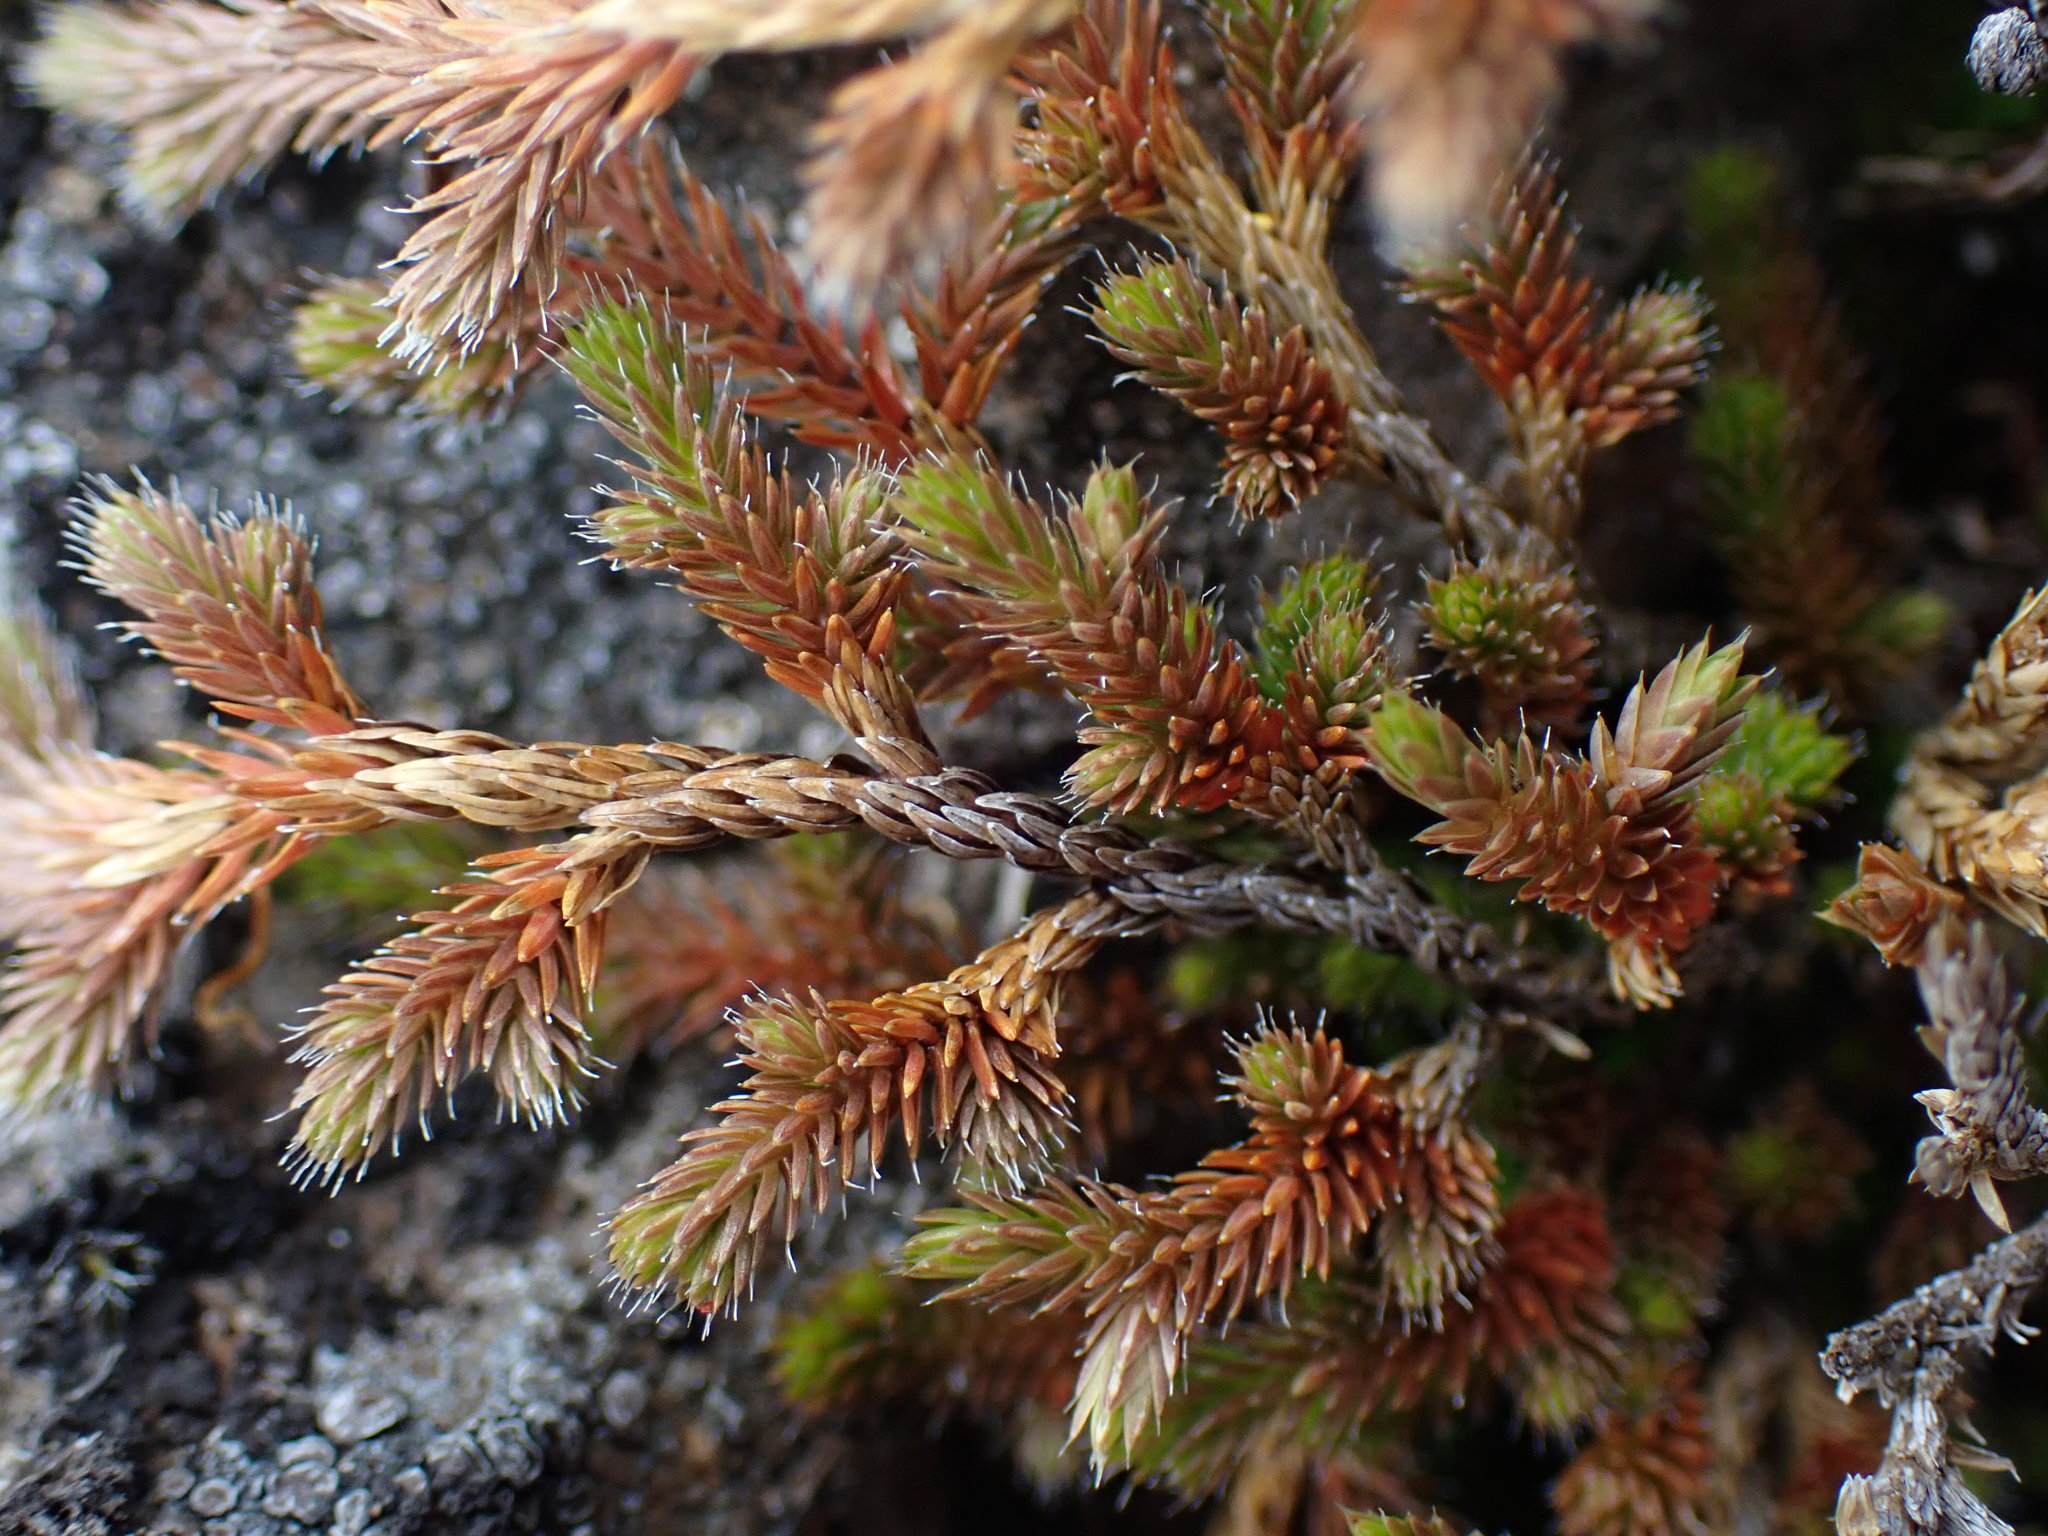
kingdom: Plantae
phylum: Tracheophyta
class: Lycopodiopsida
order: Selaginellales
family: Selaginellaceae
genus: Selaginella
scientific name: Selaginella wallacei
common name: Wallace's selaginella
